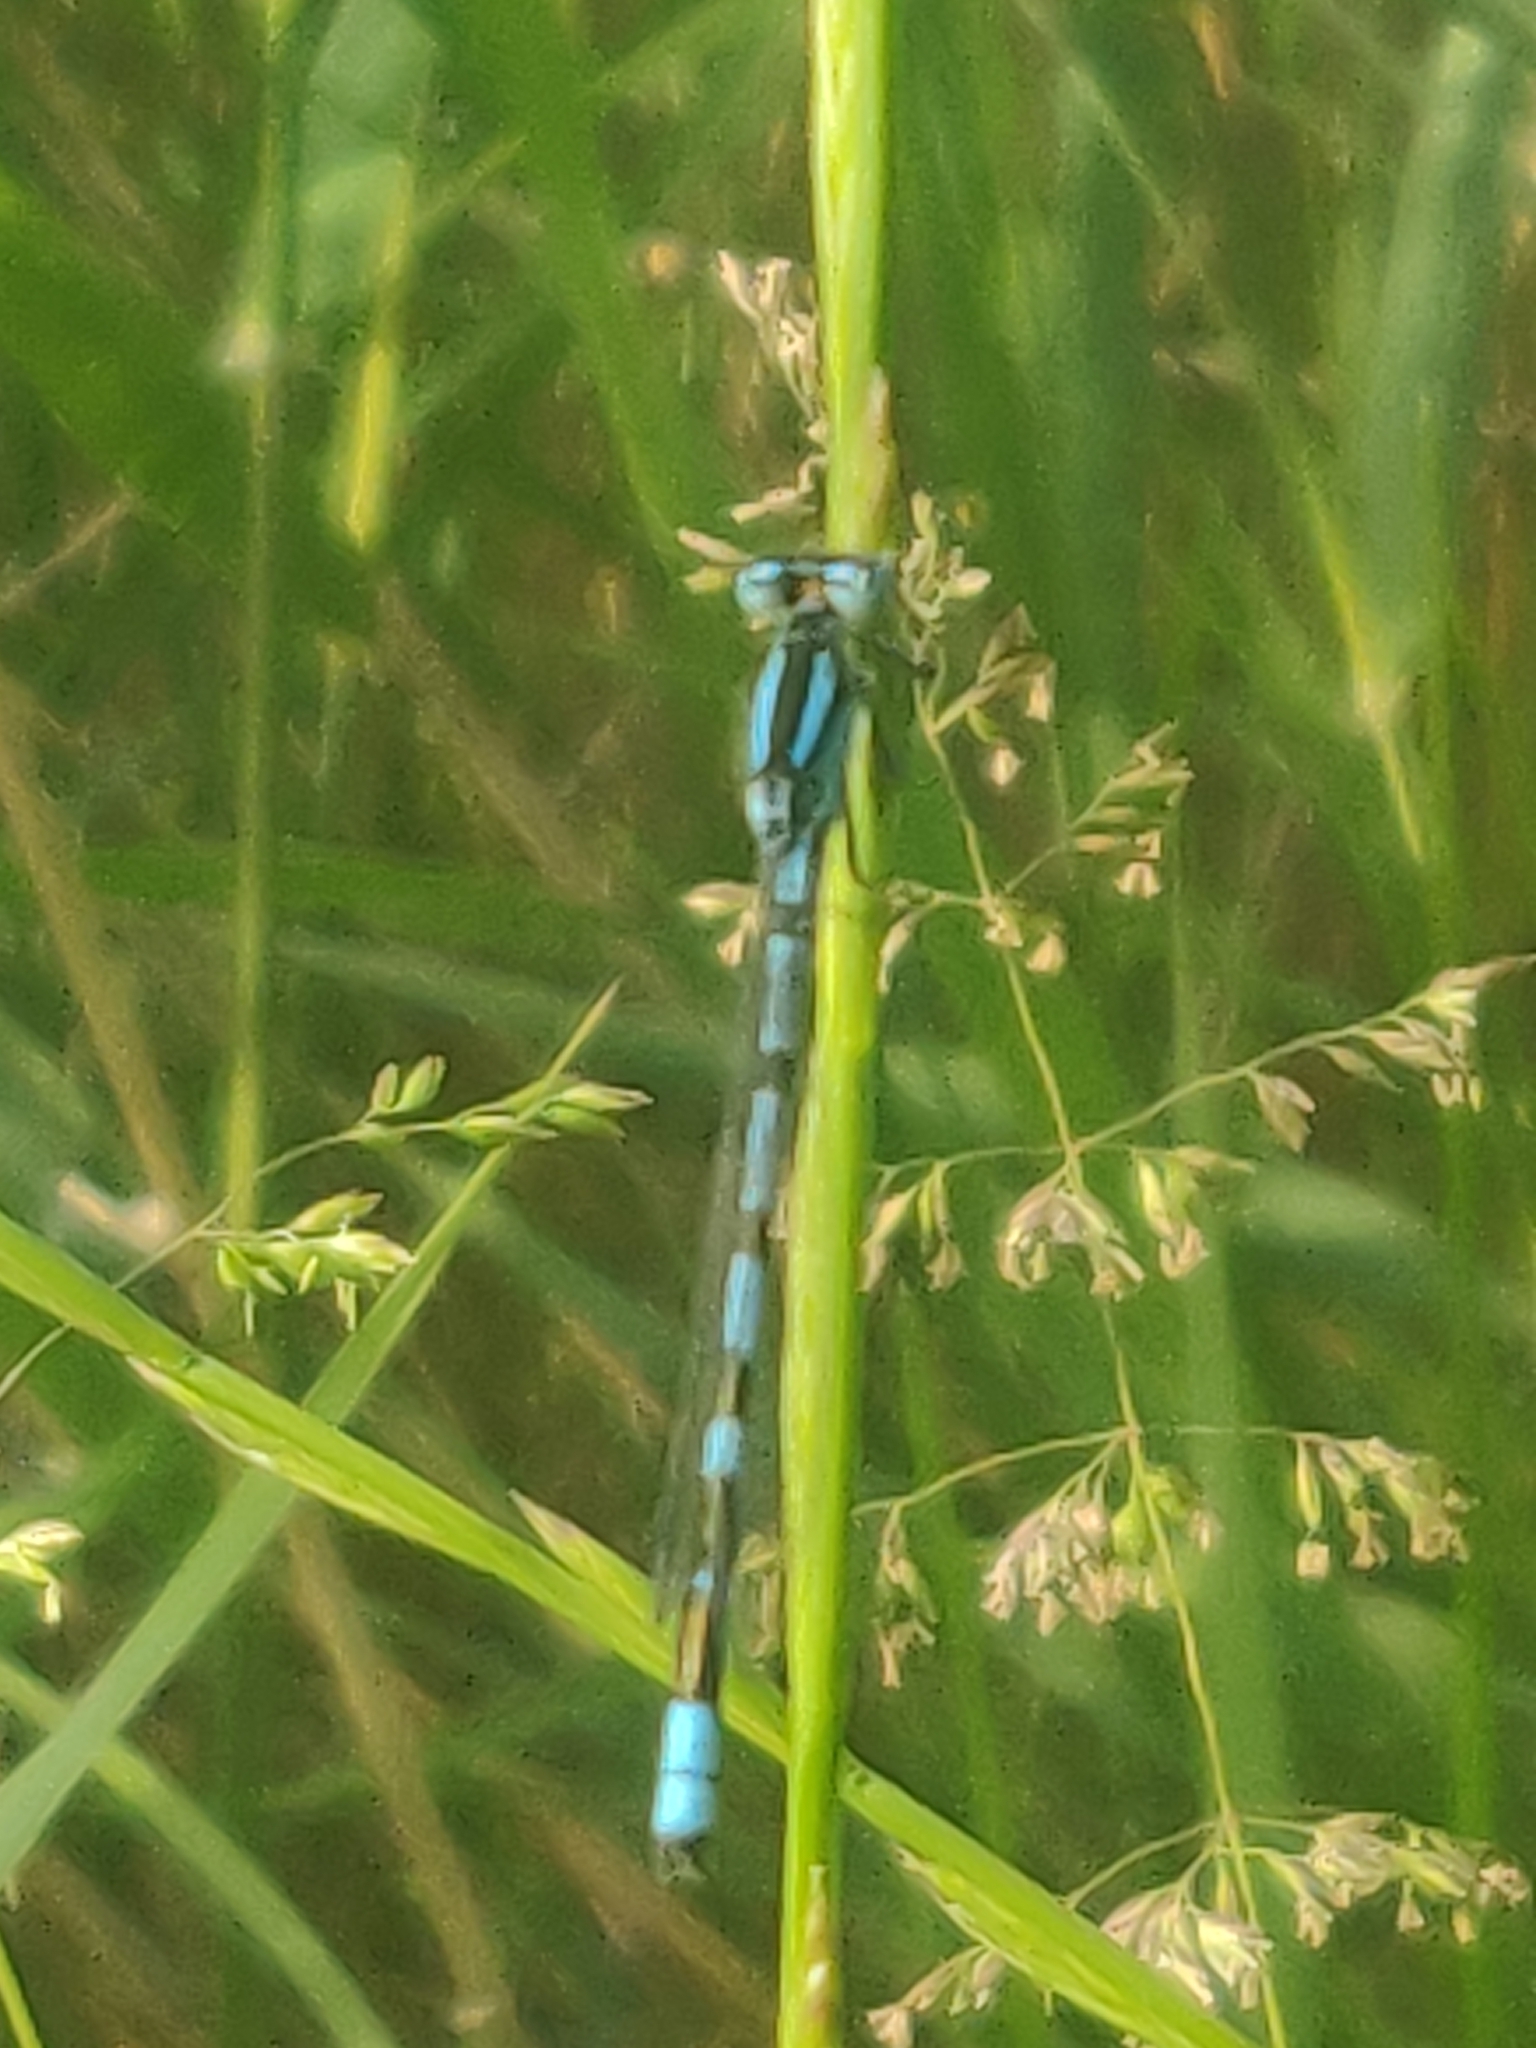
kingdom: Animalia
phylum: Arthropoda
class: Insecta
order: Odonata
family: Coenagrionidae
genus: Enallagma
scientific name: Enallagma cyathigerum
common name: Common blue damselfly
